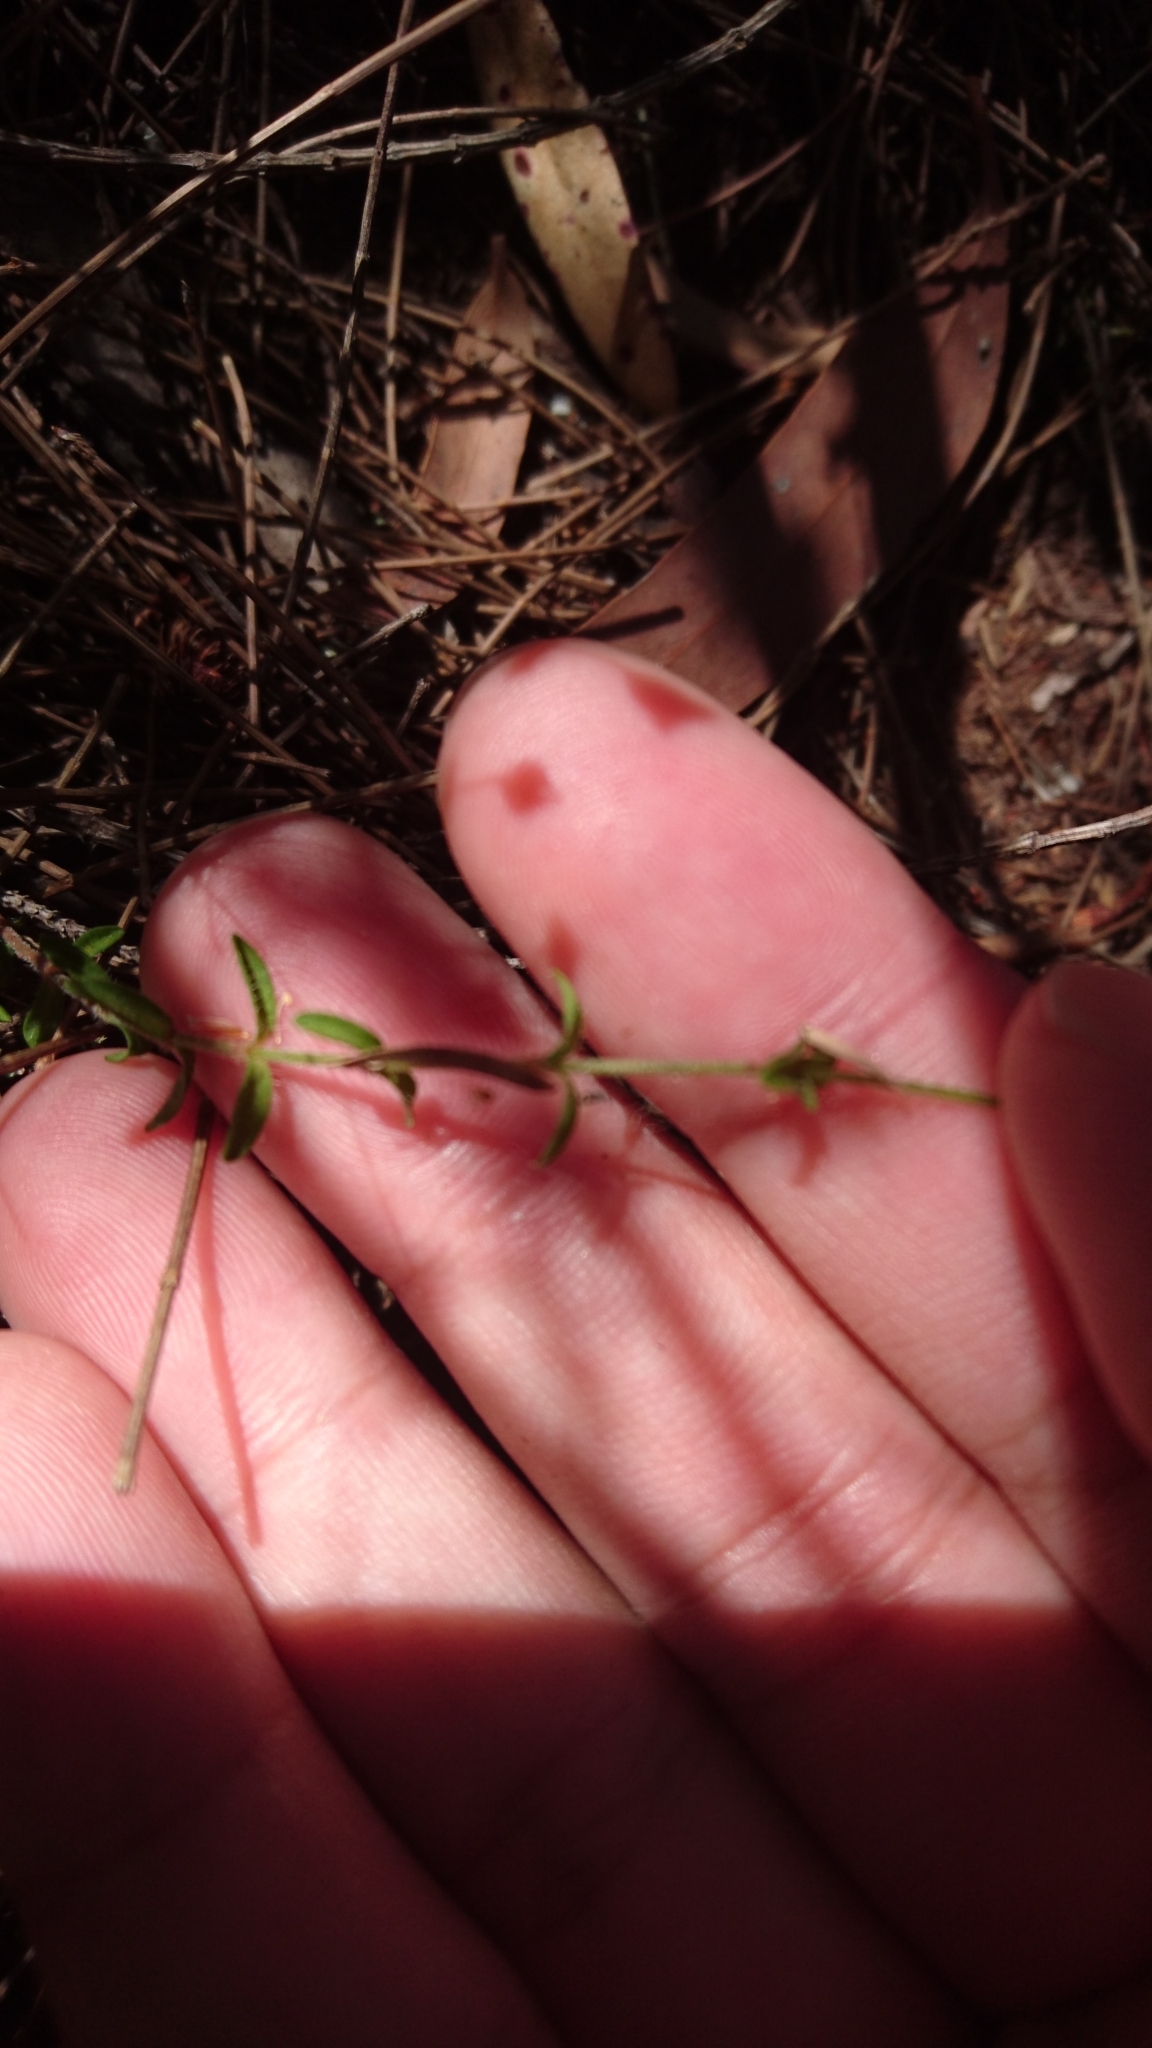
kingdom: Plantae
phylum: Tracheophyta
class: Magnoliopsida
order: Gentianales
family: Loganiaceae
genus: Mitrasacme
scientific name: Mitrasacme polymorpha
